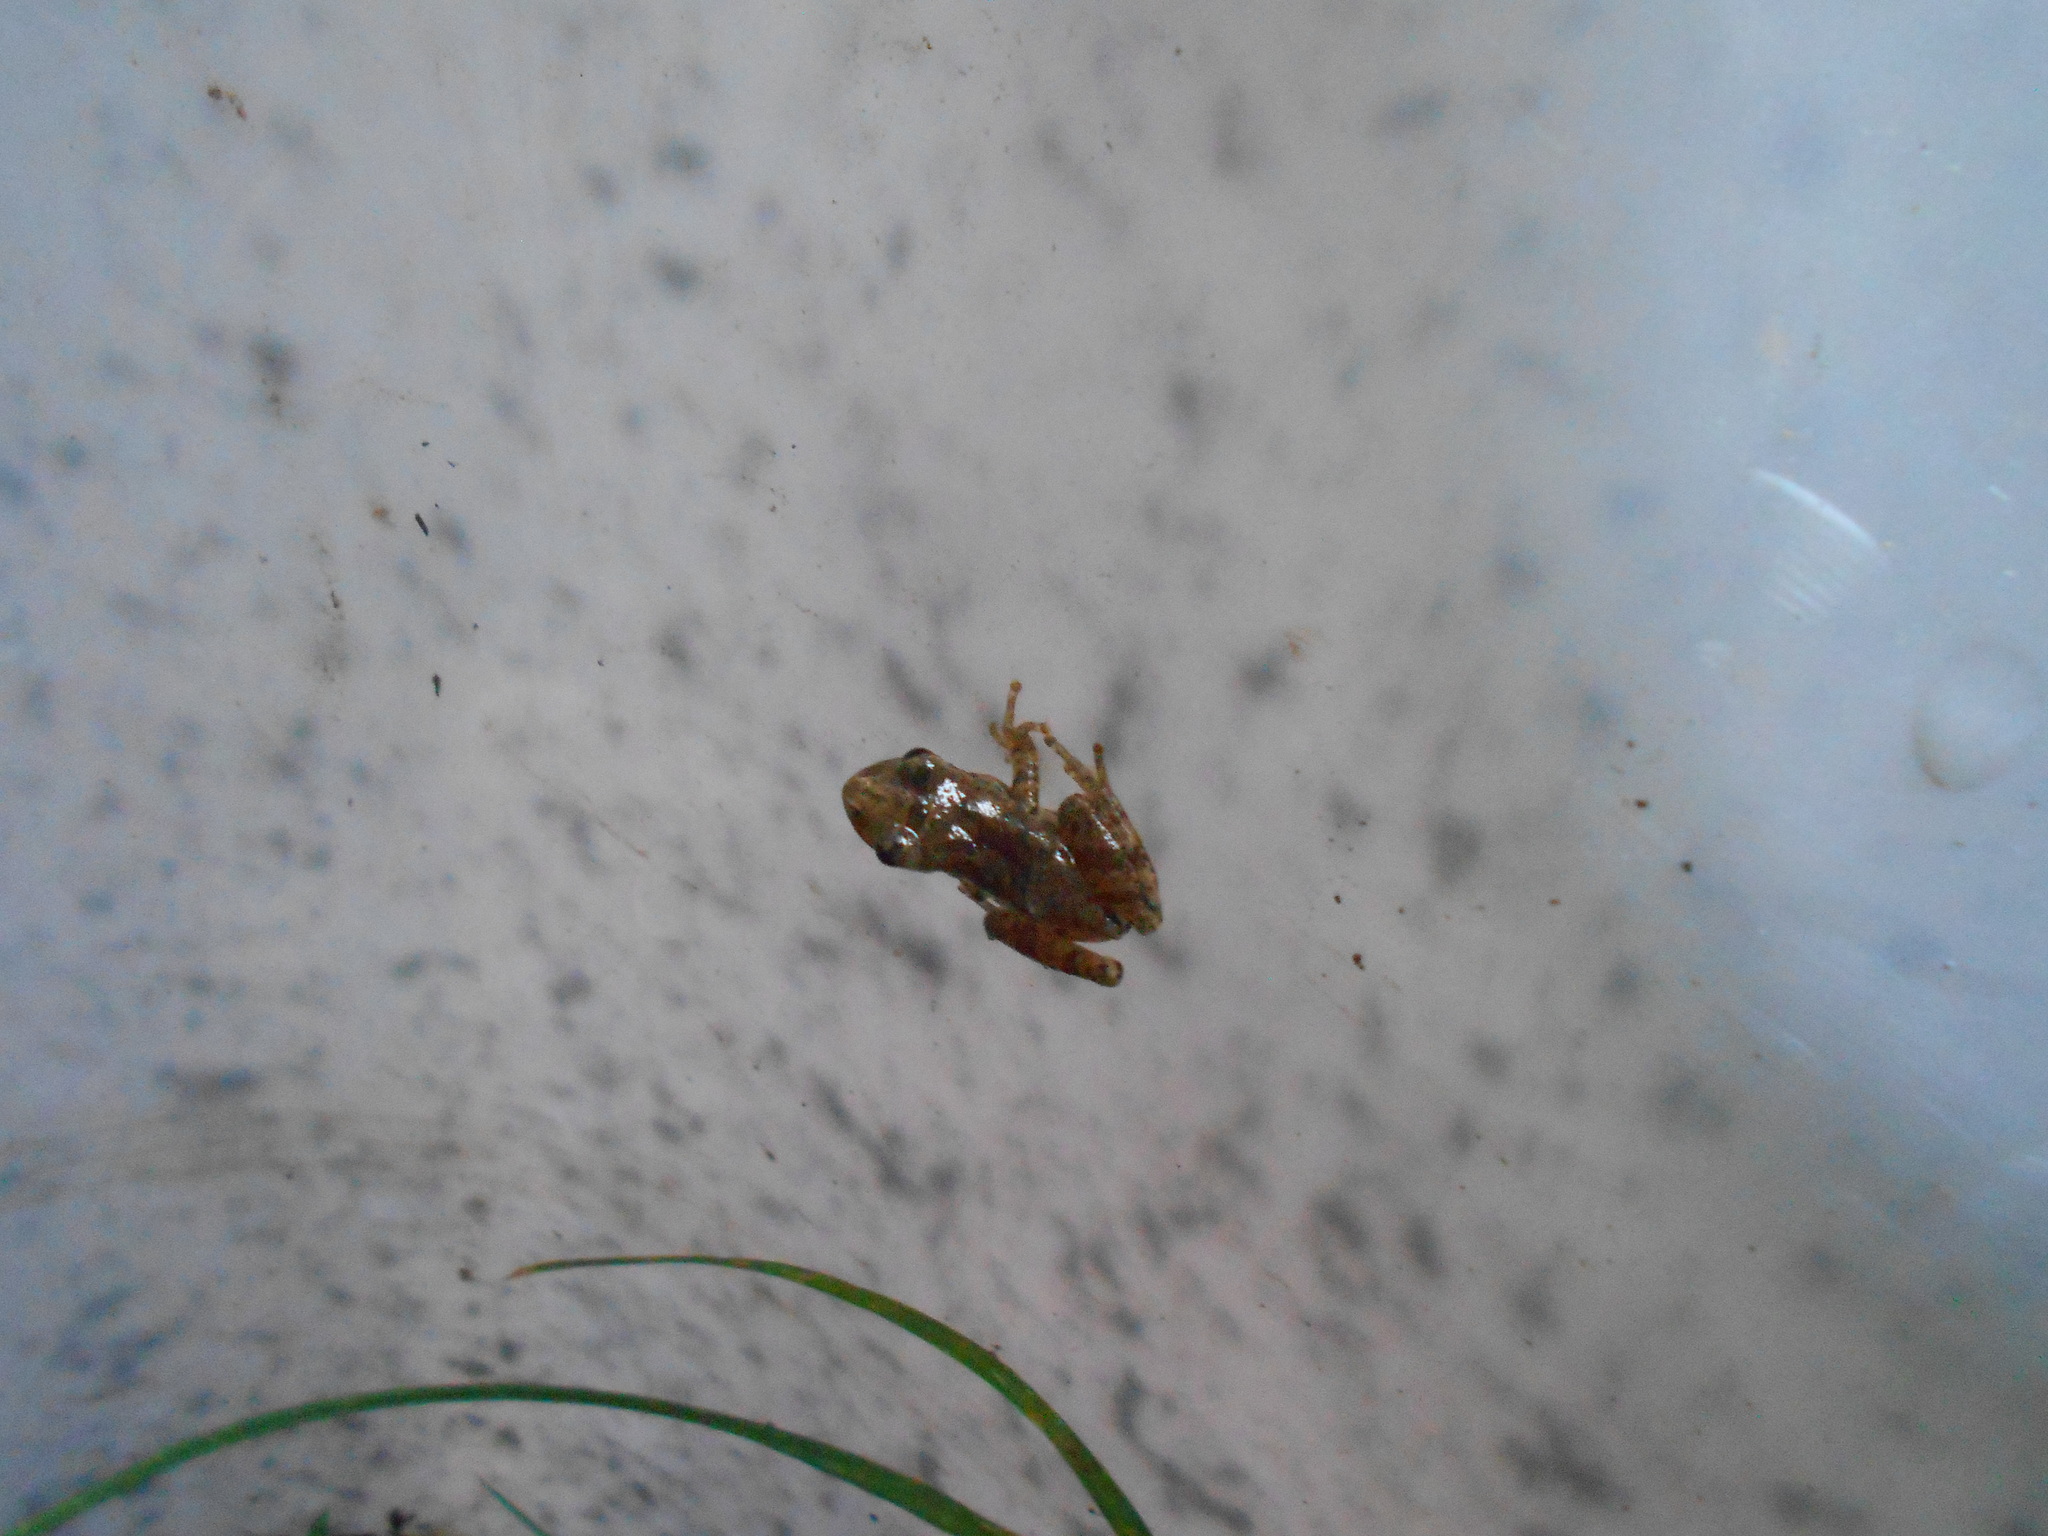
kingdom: Animalia
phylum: Chordata
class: Amphibia
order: Anura
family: Hylidae
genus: Pseudacris
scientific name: Pseudacris crucifer
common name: Spring peeper
